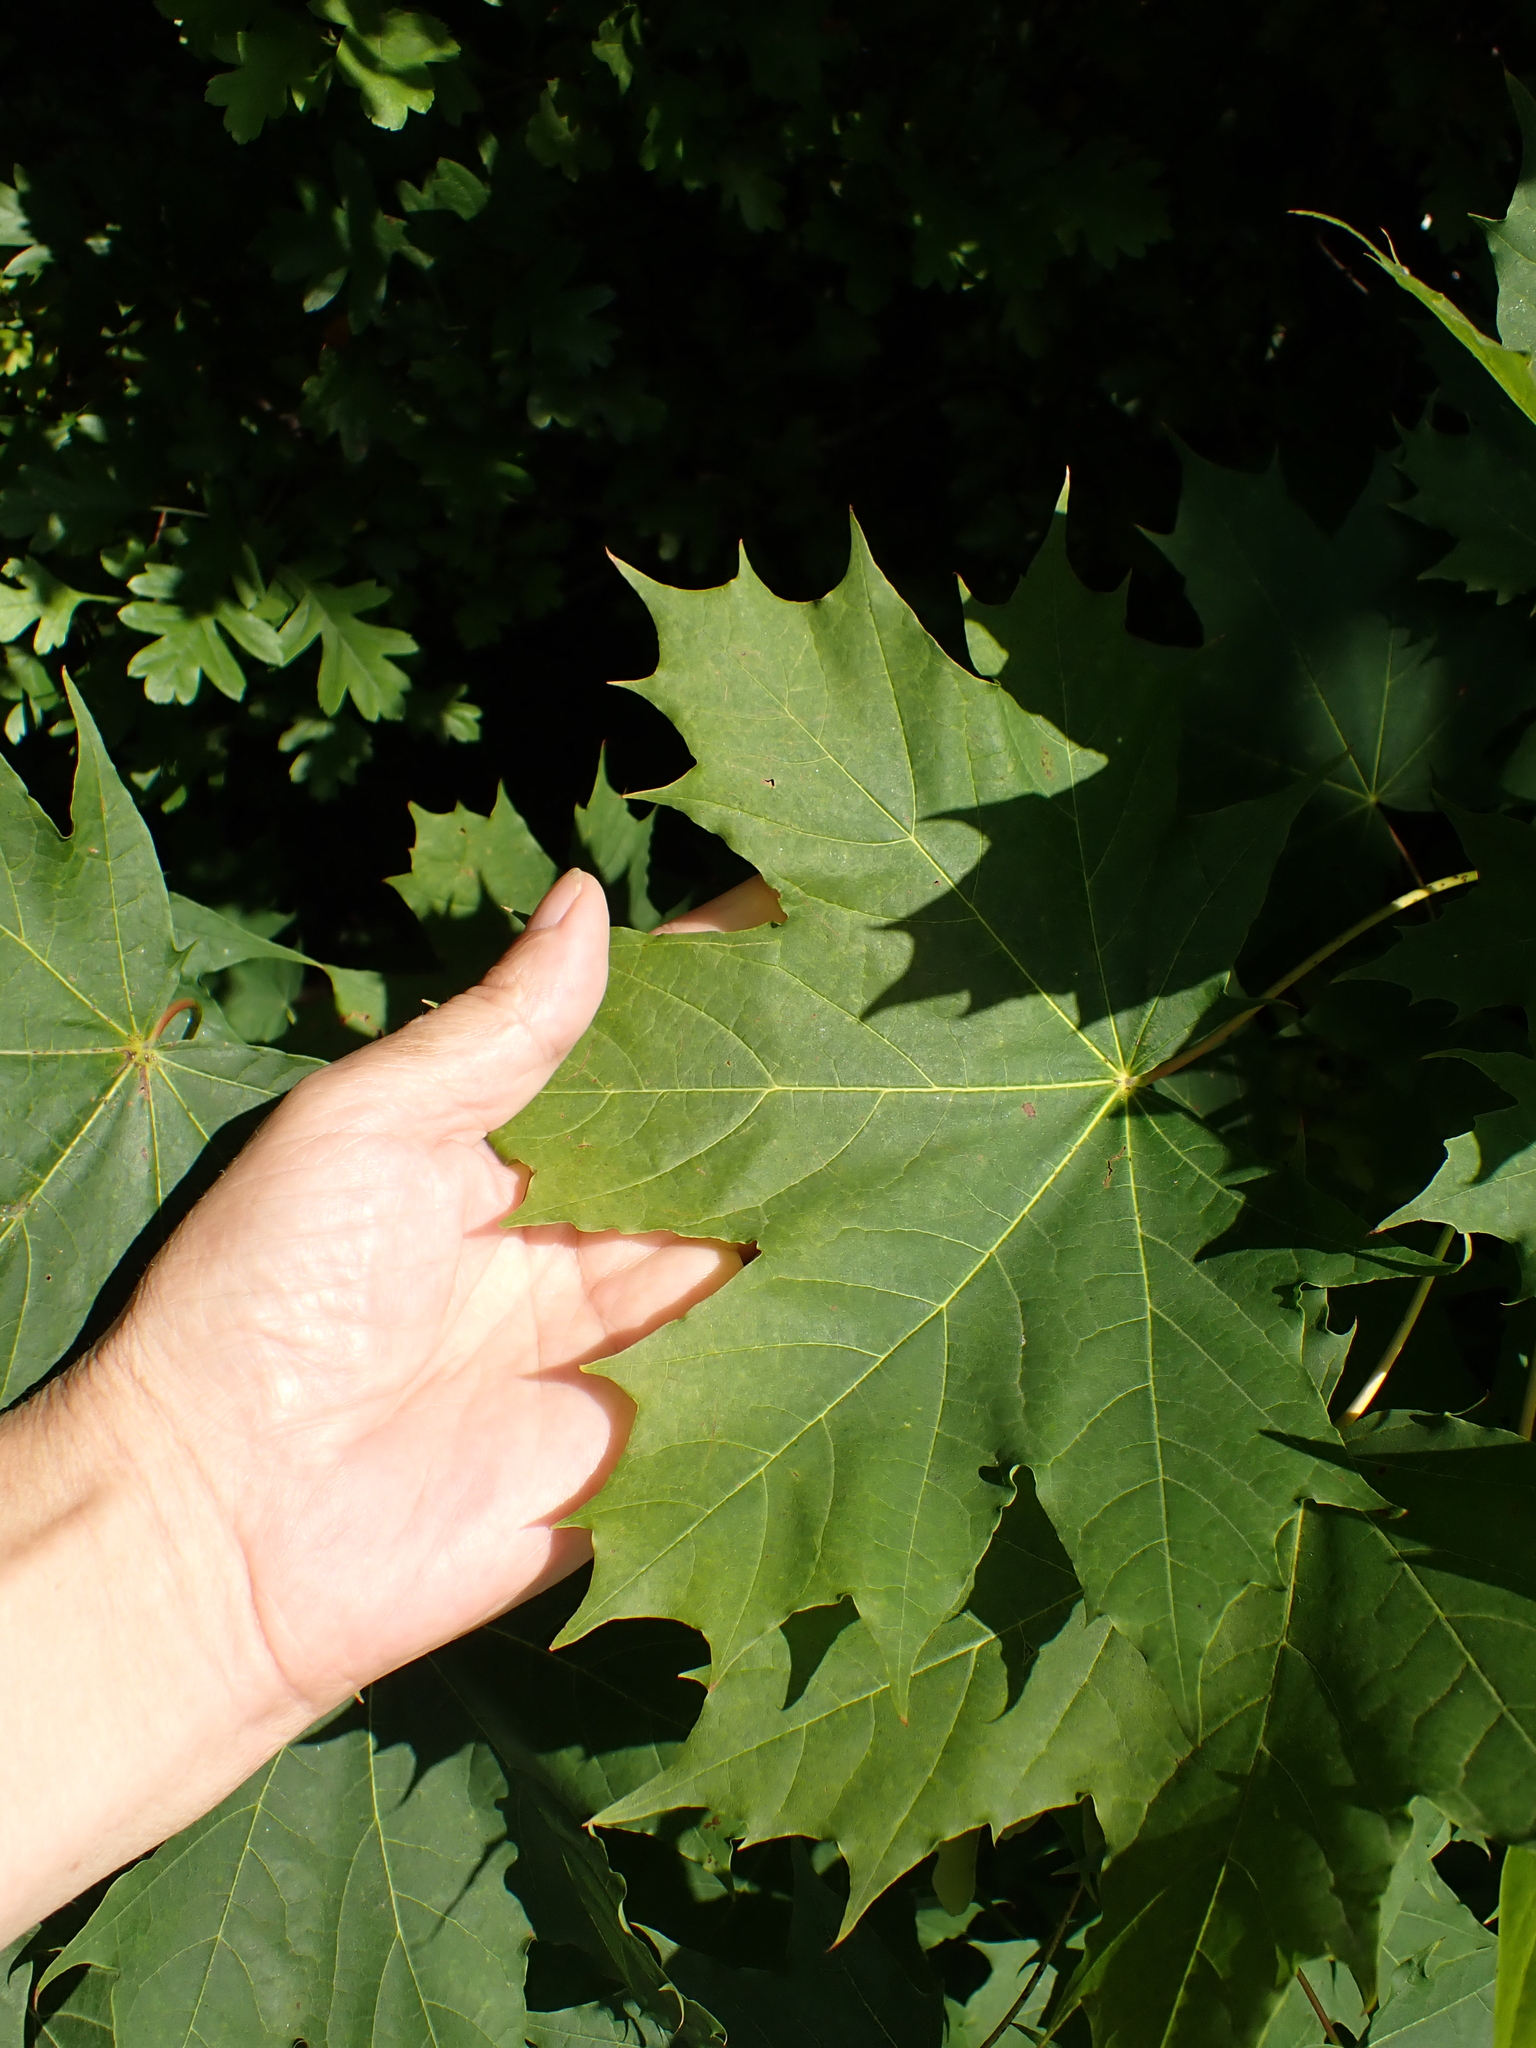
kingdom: Plantae
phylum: Tracheophyta
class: Magnoliopsida
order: Sapindales
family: Sapindaceae
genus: Acer
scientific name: Acer platanoides
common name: Norway maple
